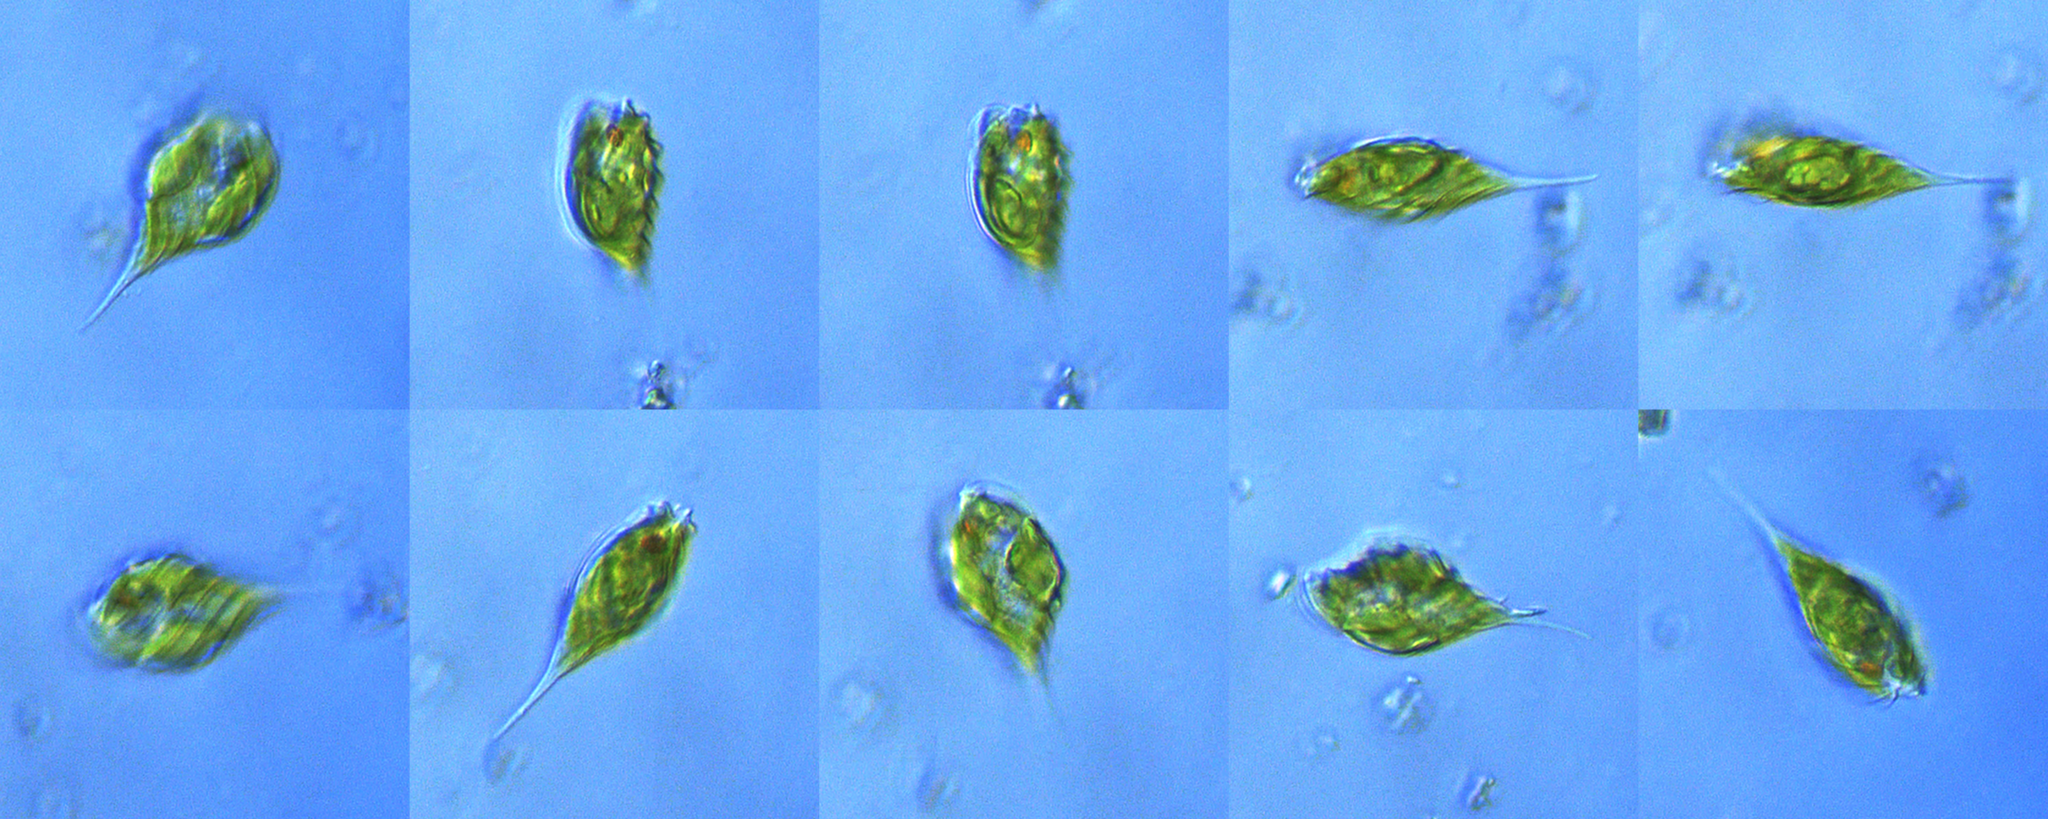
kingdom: Protozoa
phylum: Euglenozoa
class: Euglenoidea
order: Euglenida
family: Euglenaceae
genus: Monomorphina
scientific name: Monomorphina pyrum
